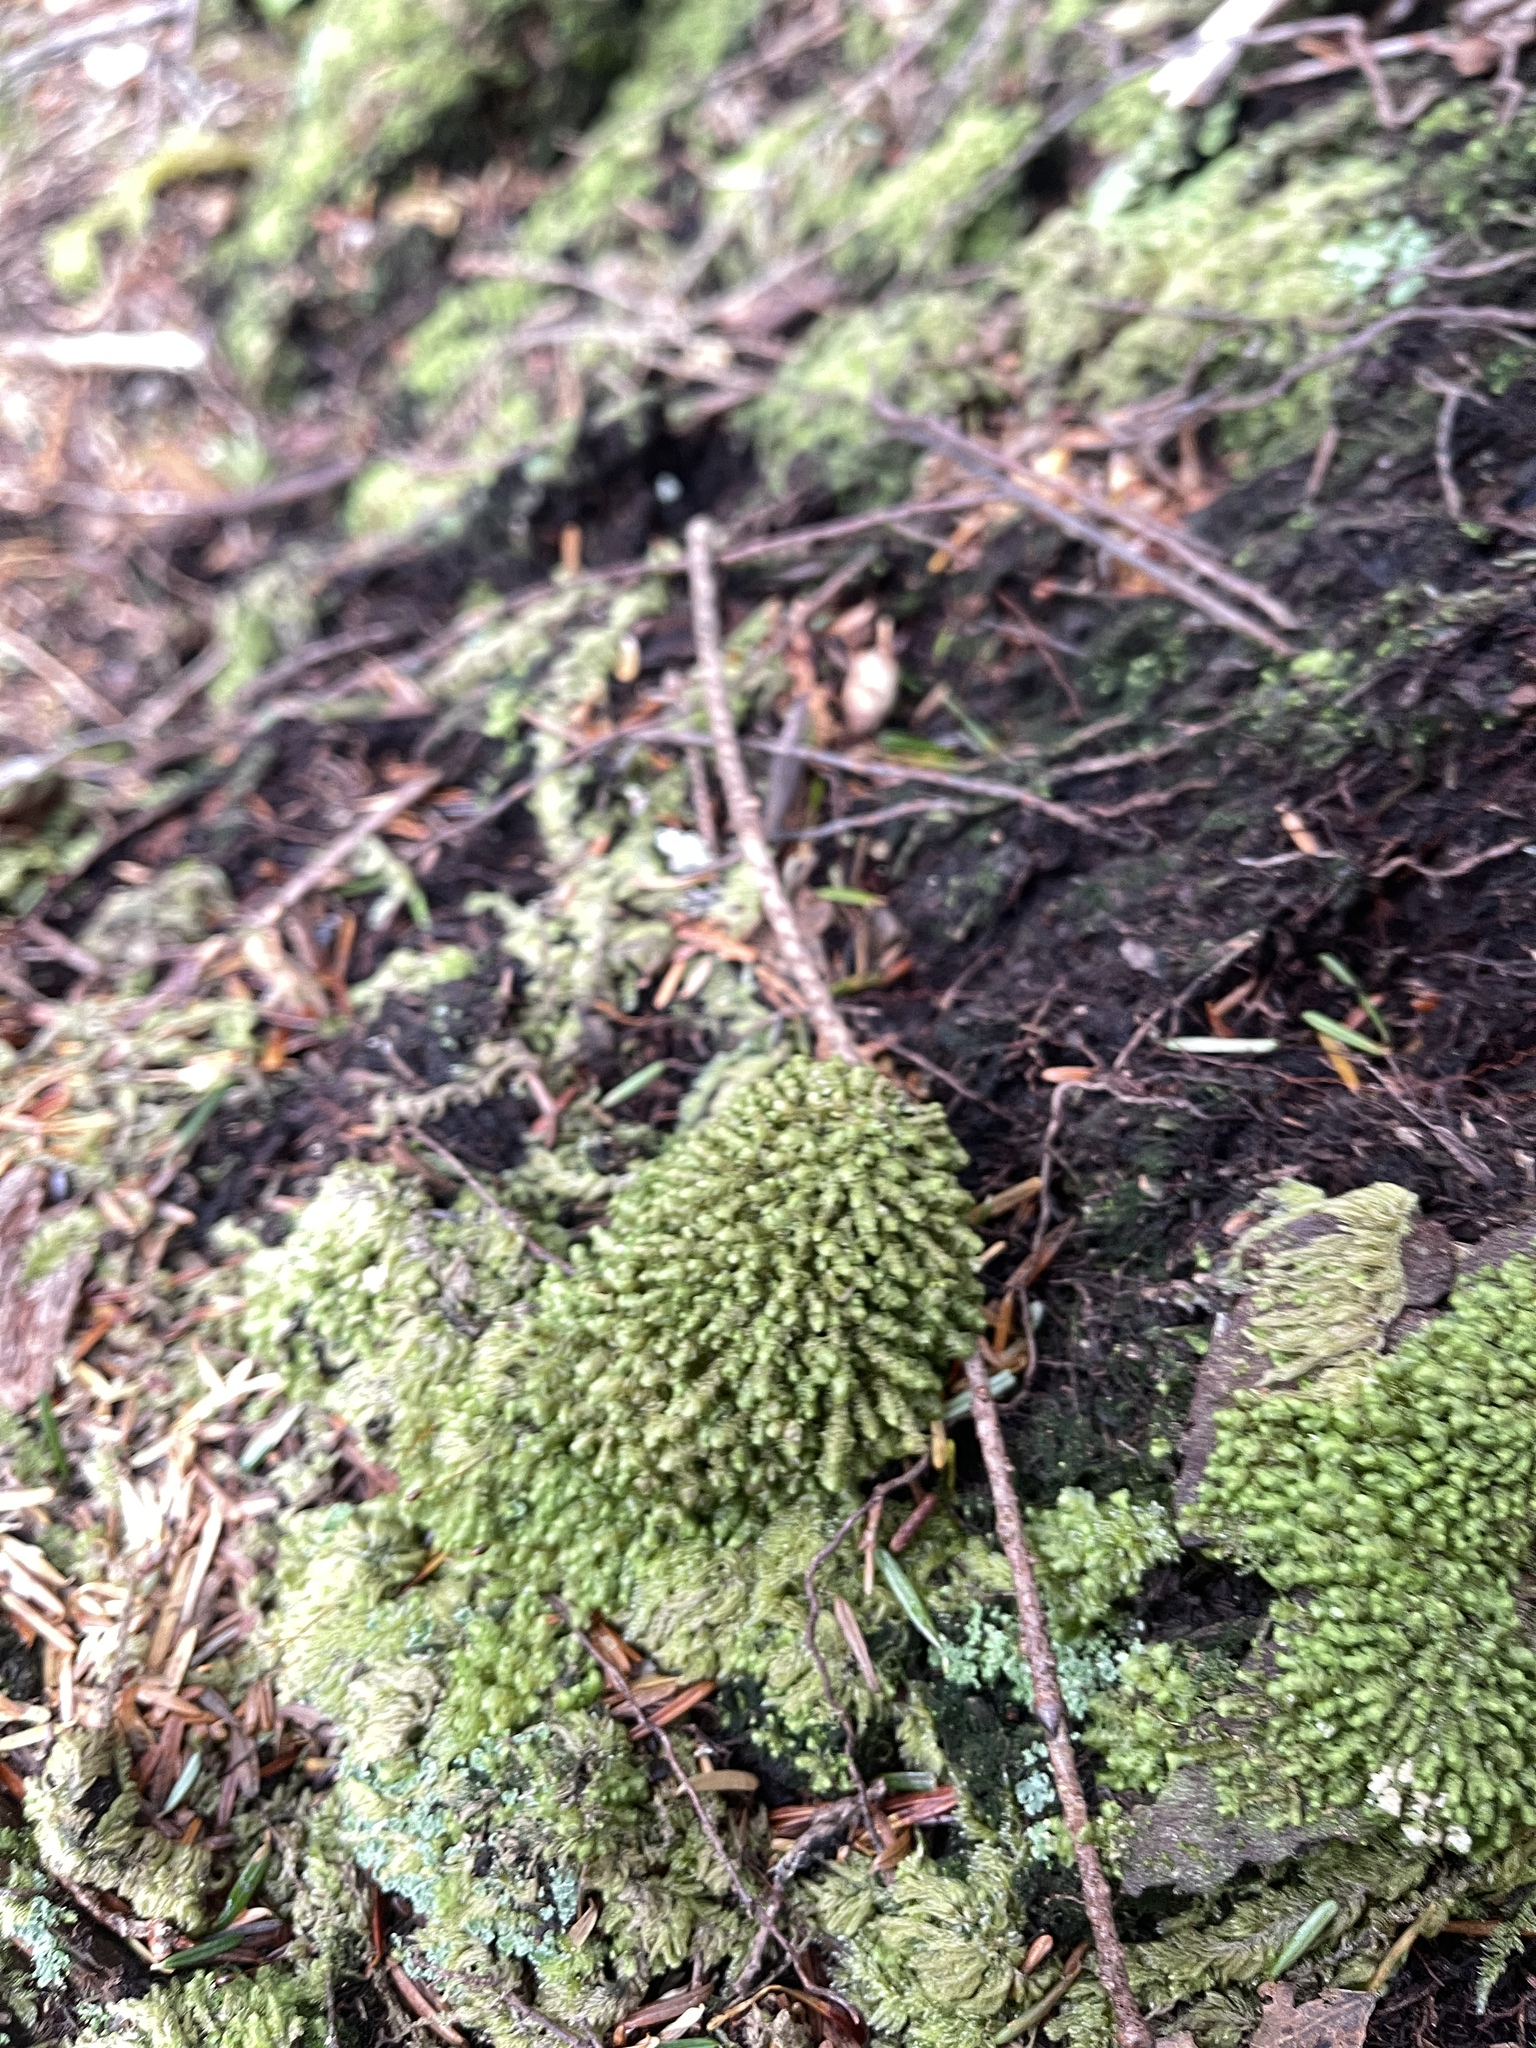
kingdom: Plantae
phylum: Marchantiophyta
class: Jungermanniopsida
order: Jungermanniales
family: Scapaniaceae
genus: Scapania
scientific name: Scapania americana
